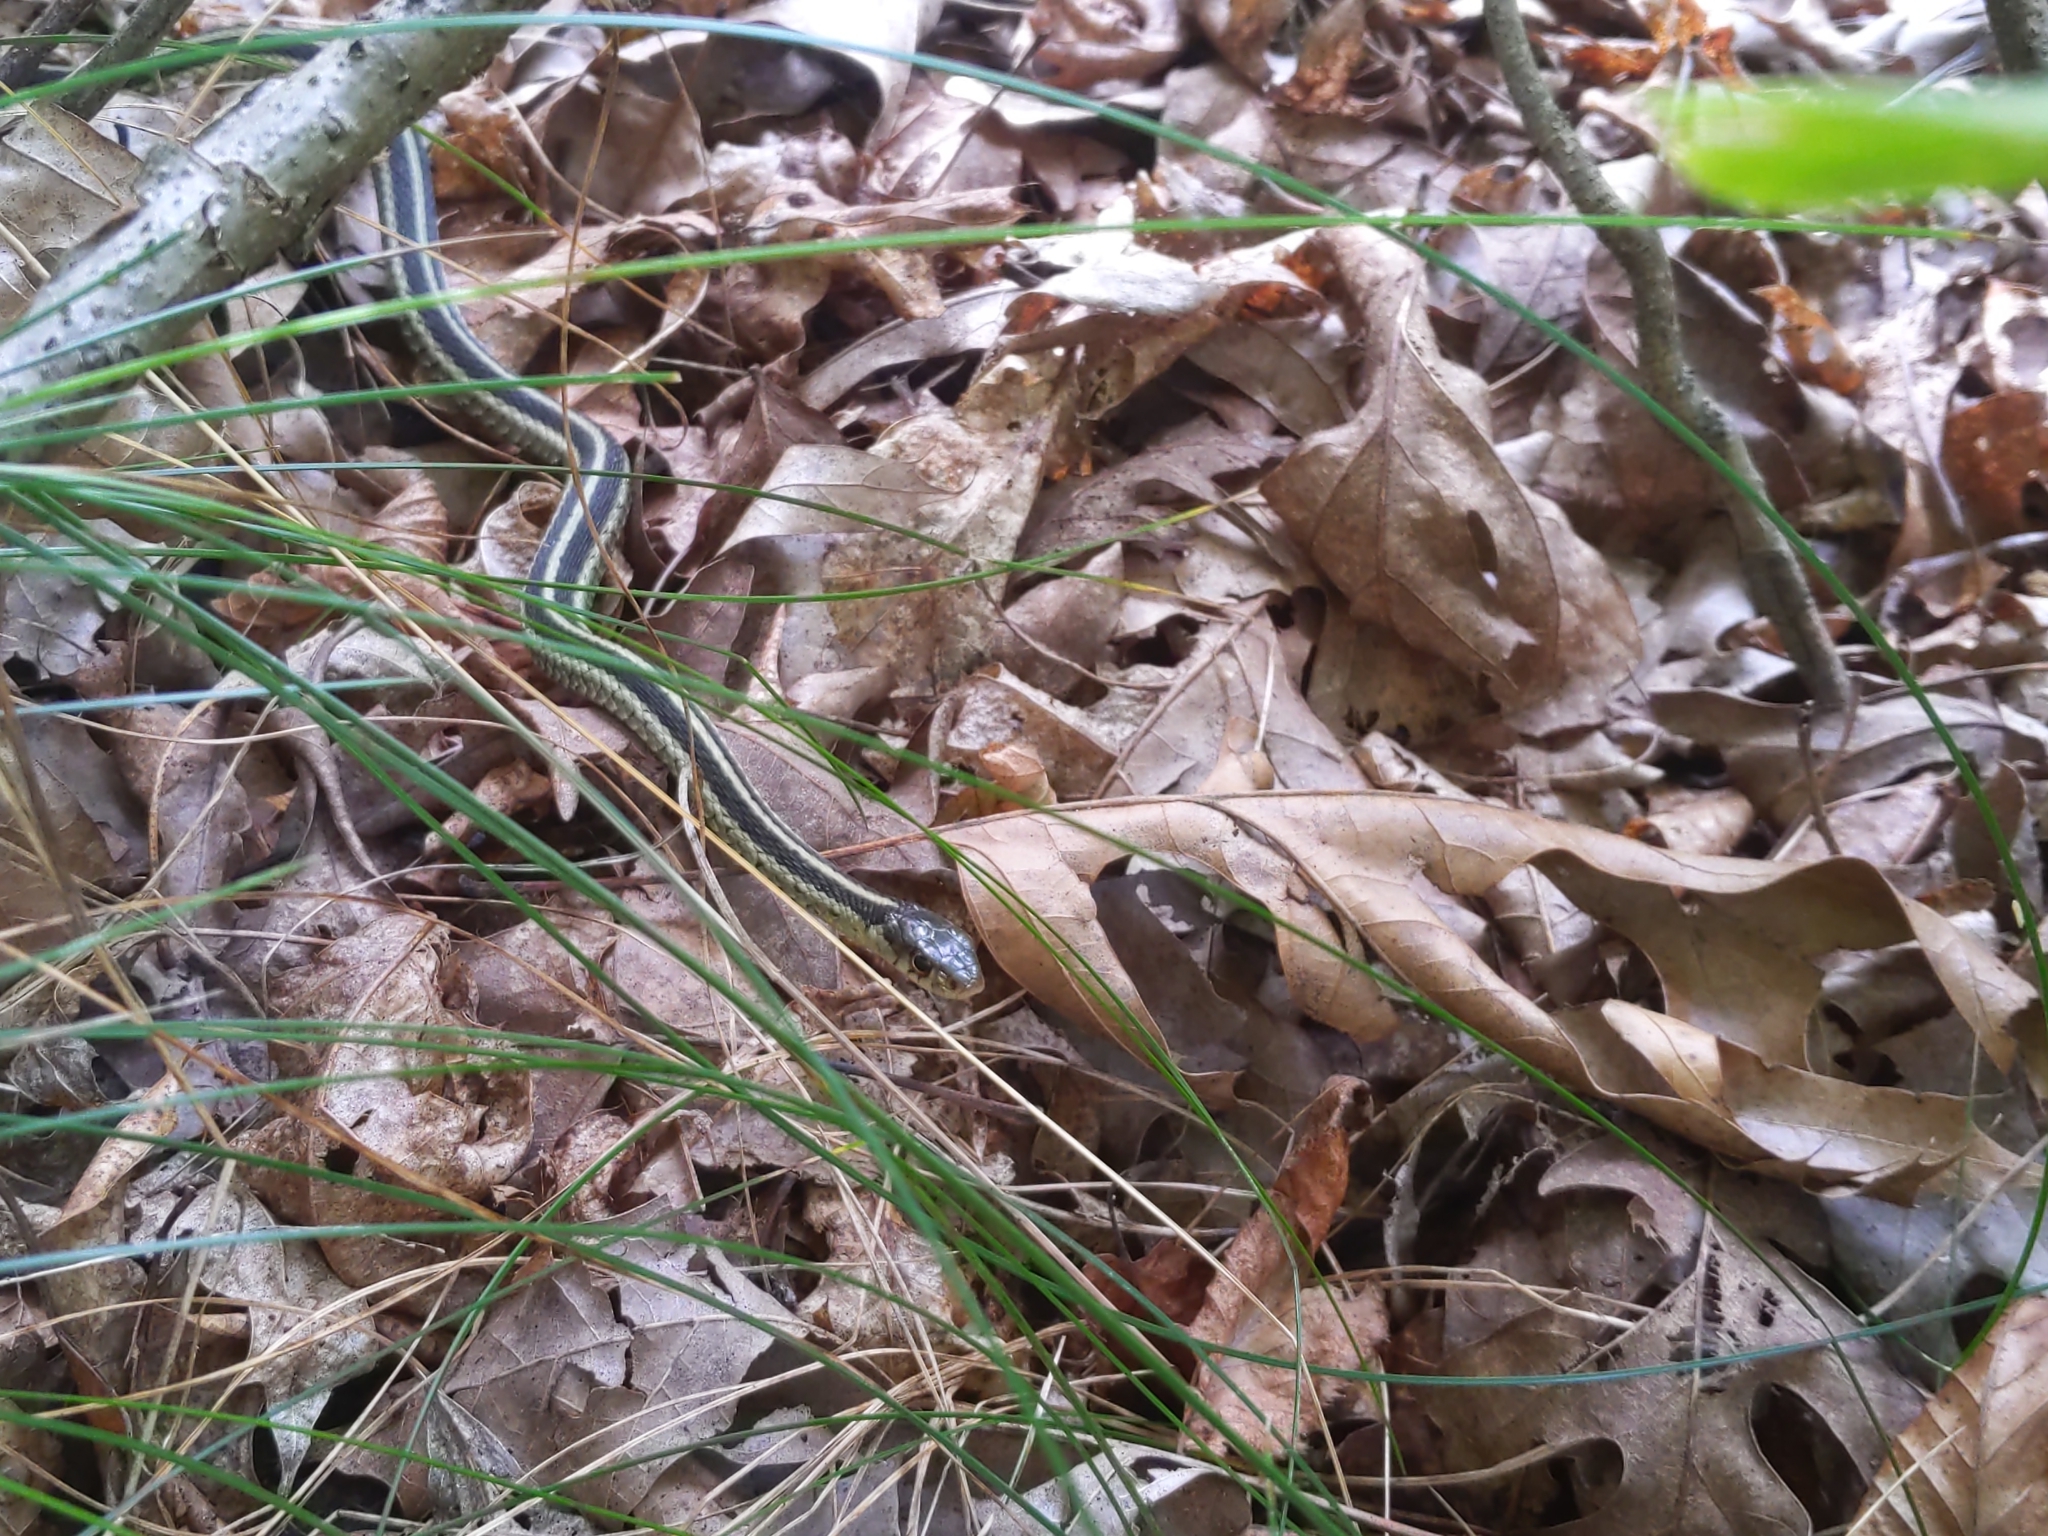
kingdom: Animalia
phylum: Chordata
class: Squamata
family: Colubridae
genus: Thamnophis
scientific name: Thamnophis sirtalis
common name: Common garter snake
